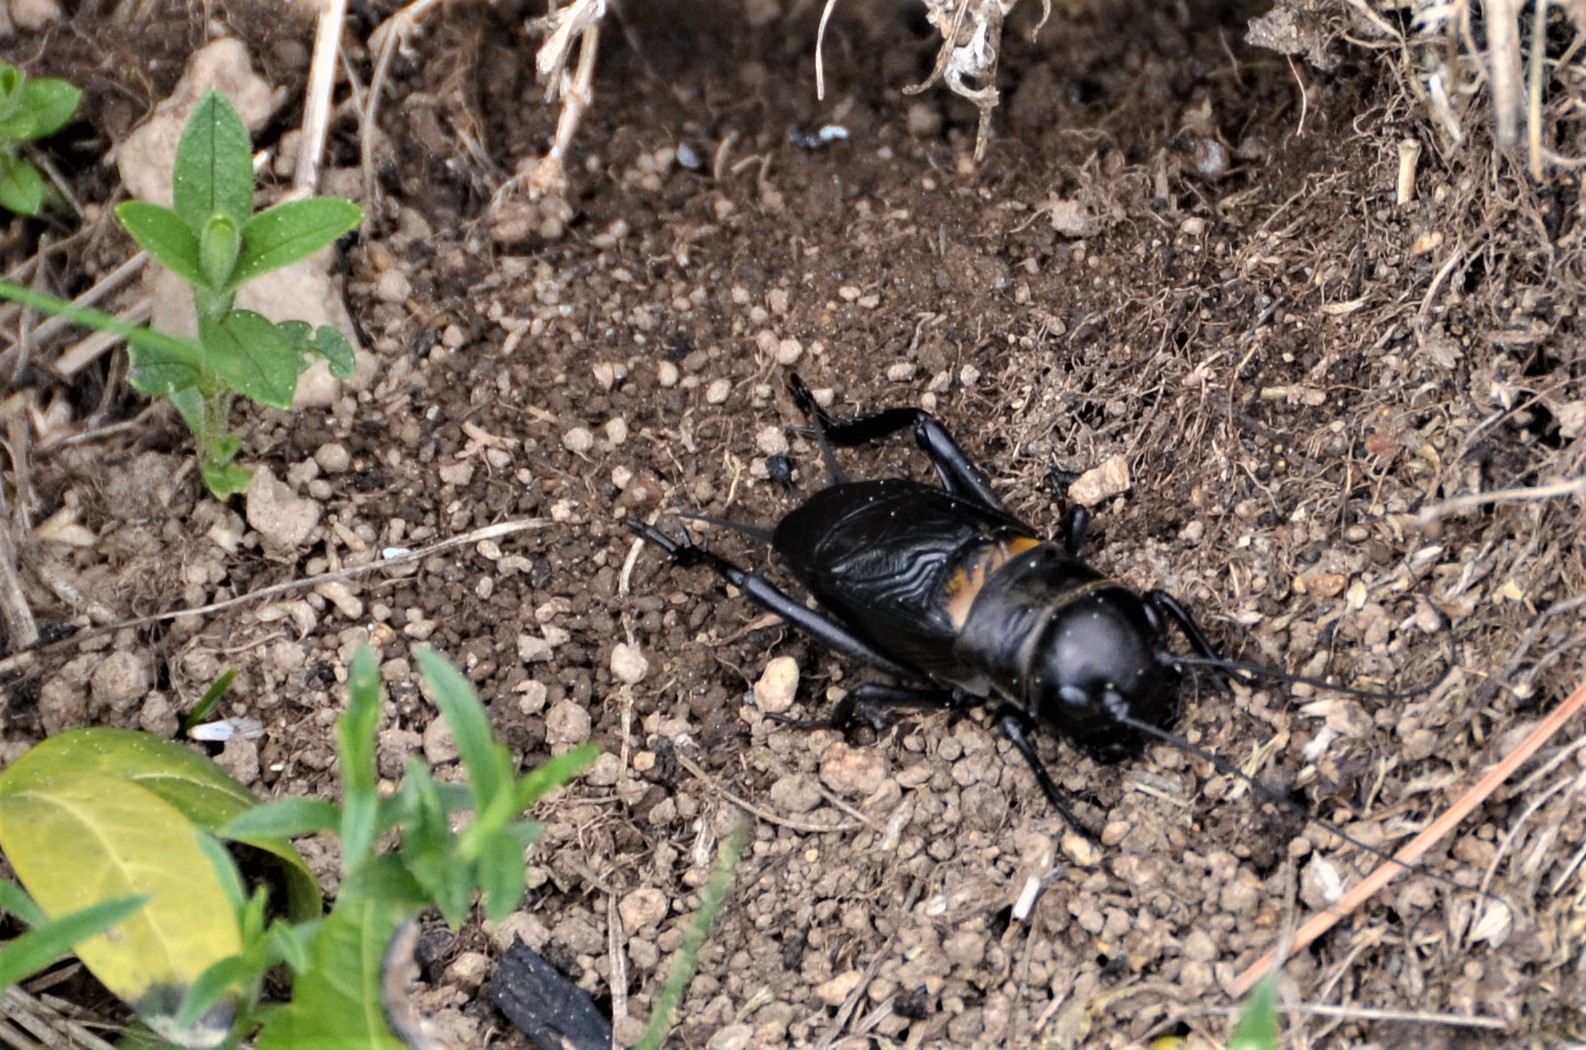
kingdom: Animalia
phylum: Arthropoda
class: Insecta
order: Orthoptera
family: Gryllidae
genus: Gryllus
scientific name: Gryllus campestris
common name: Field cricket
